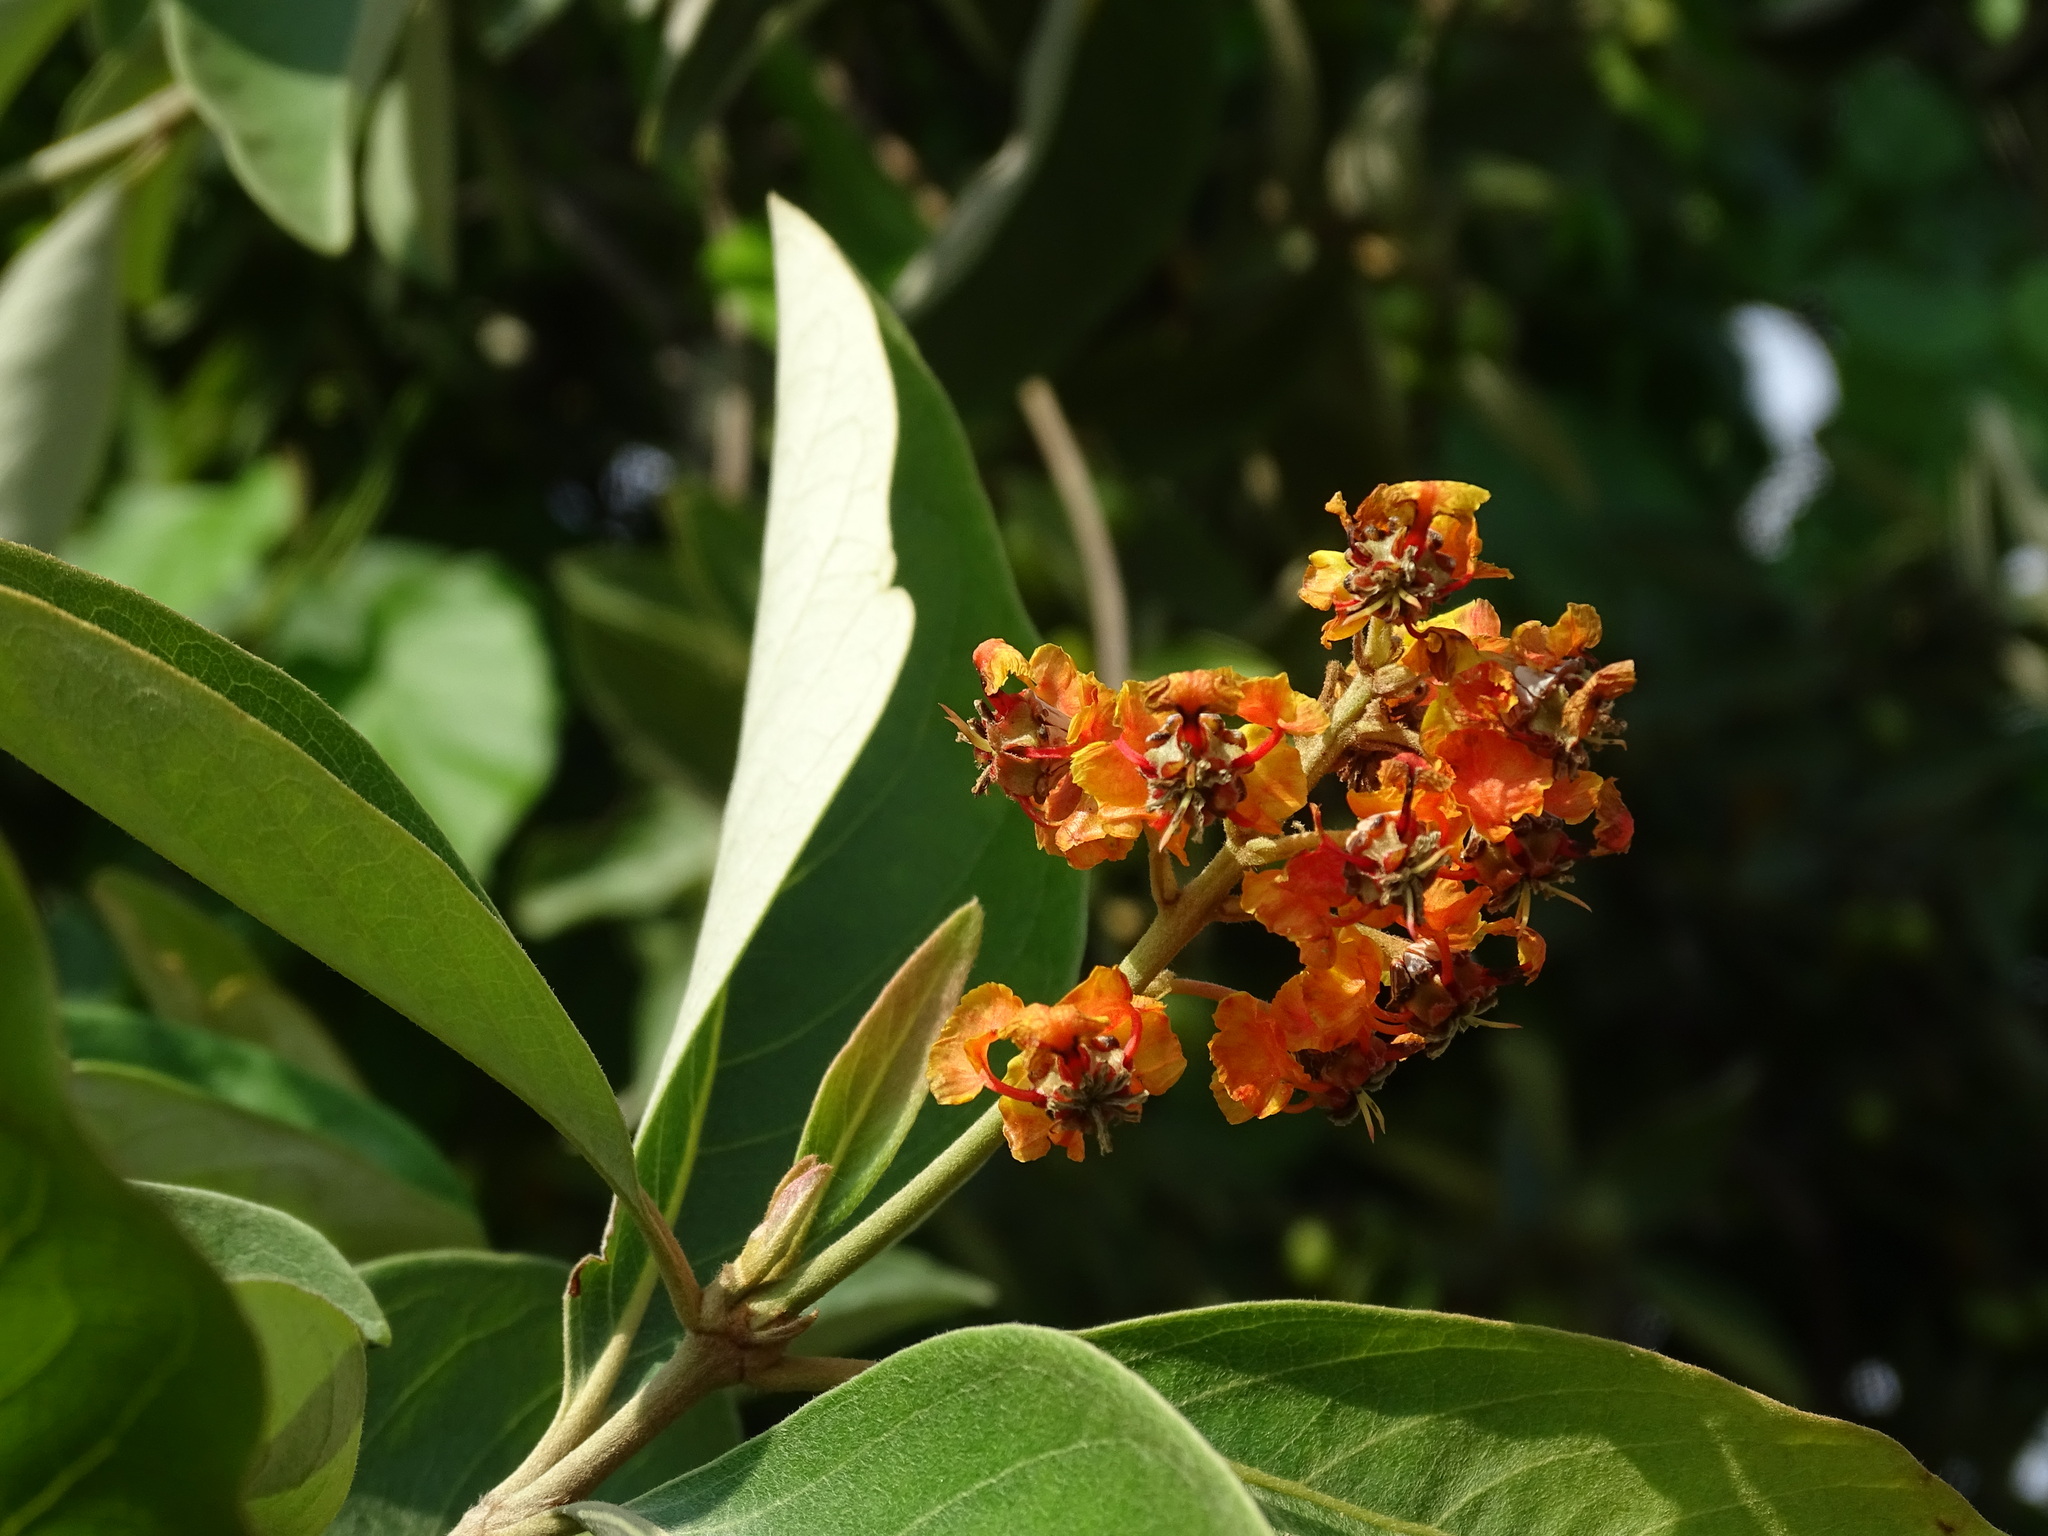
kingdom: Plantae
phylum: Tracheophyta
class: Magnoliopsida
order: Malpighiales
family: Malpighiaceae
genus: Byrsonima
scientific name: Byrsonima crassifolia
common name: Golden spoon
